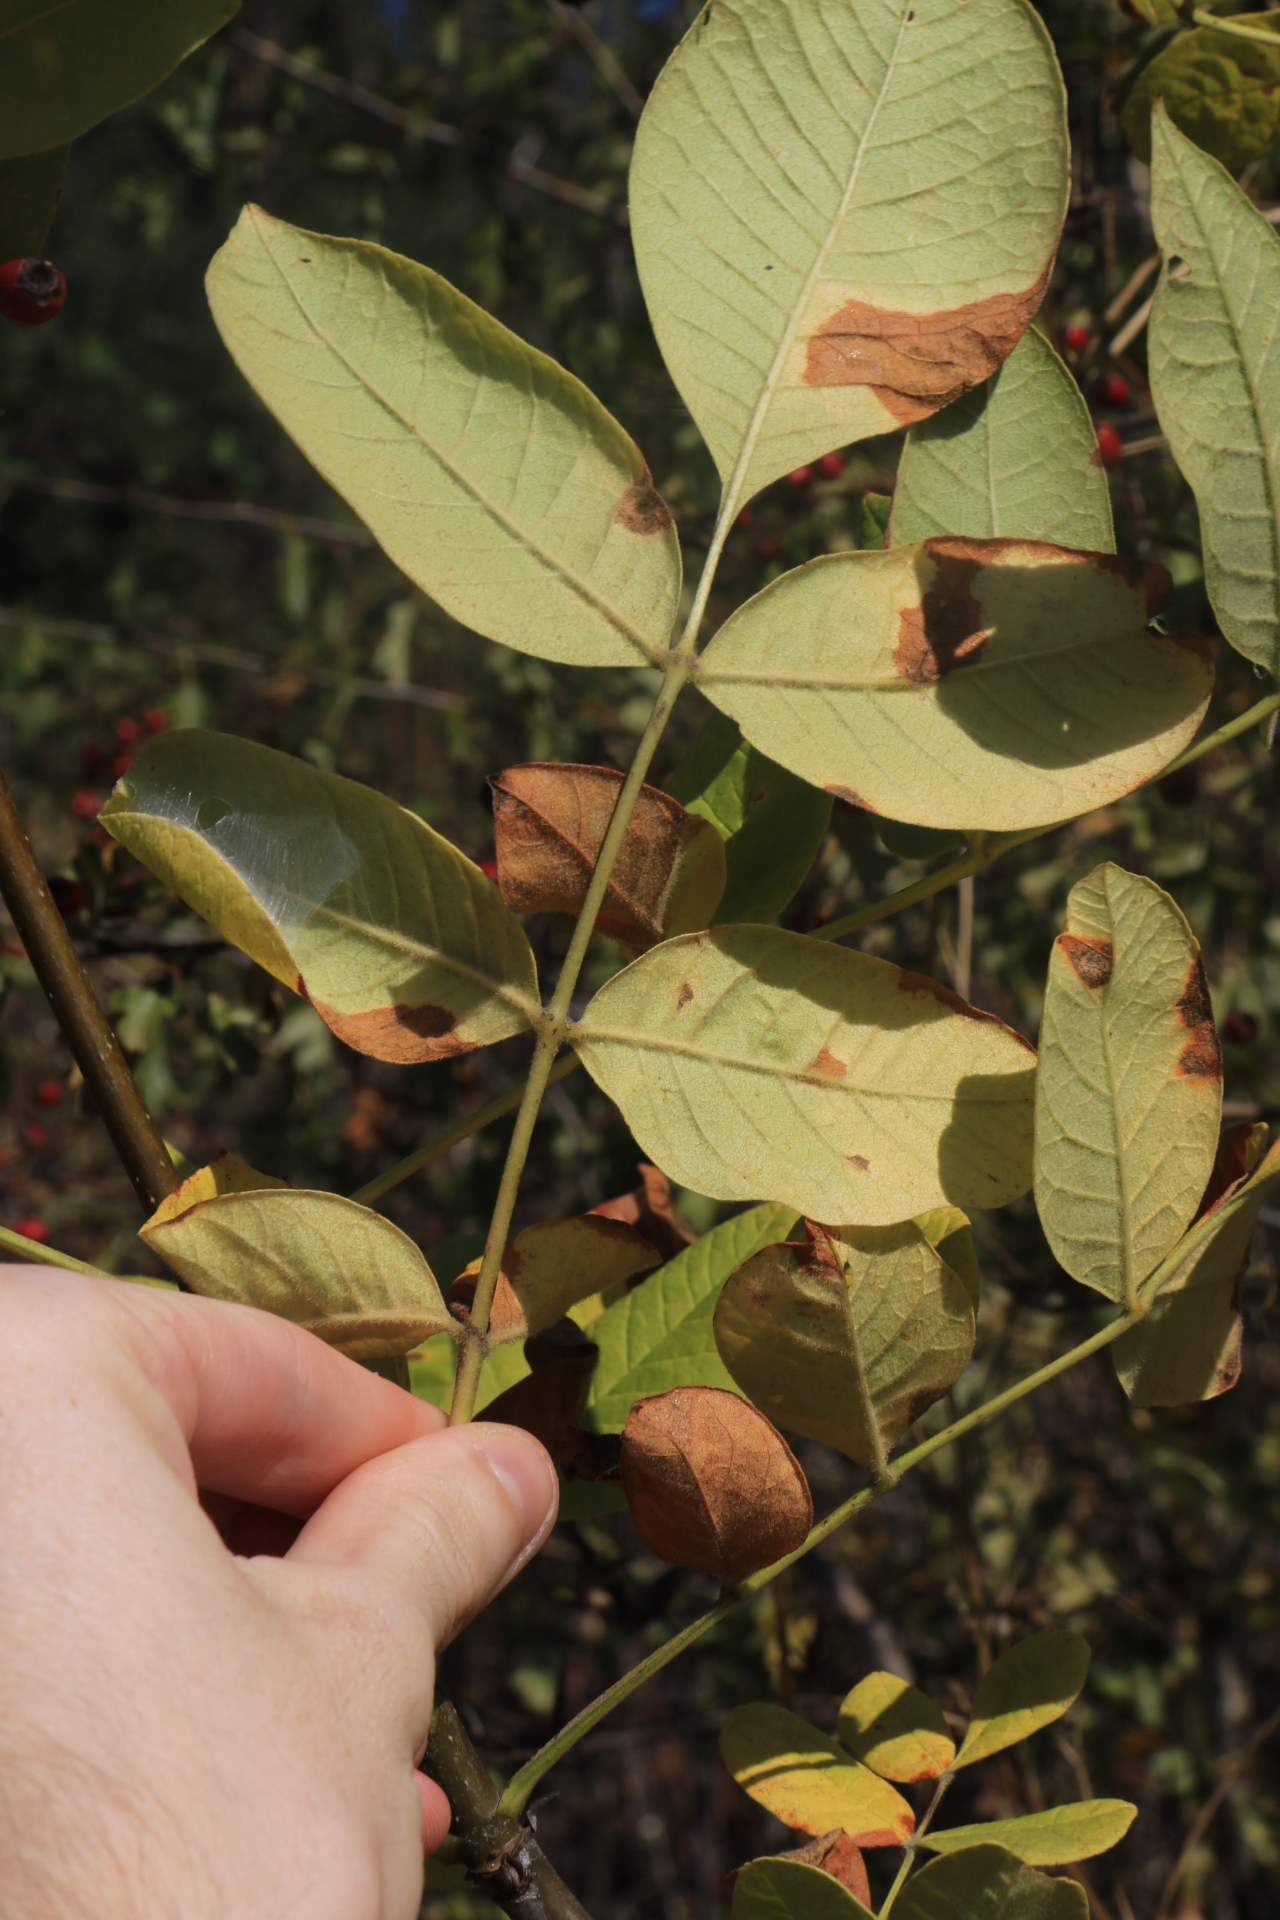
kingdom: Plantae
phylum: Tracheophyta
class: Magnoliopsida
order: Lamiales
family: Oleaceae
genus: Fraxinus
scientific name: Fraxinus latifolia
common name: Oregon ash
